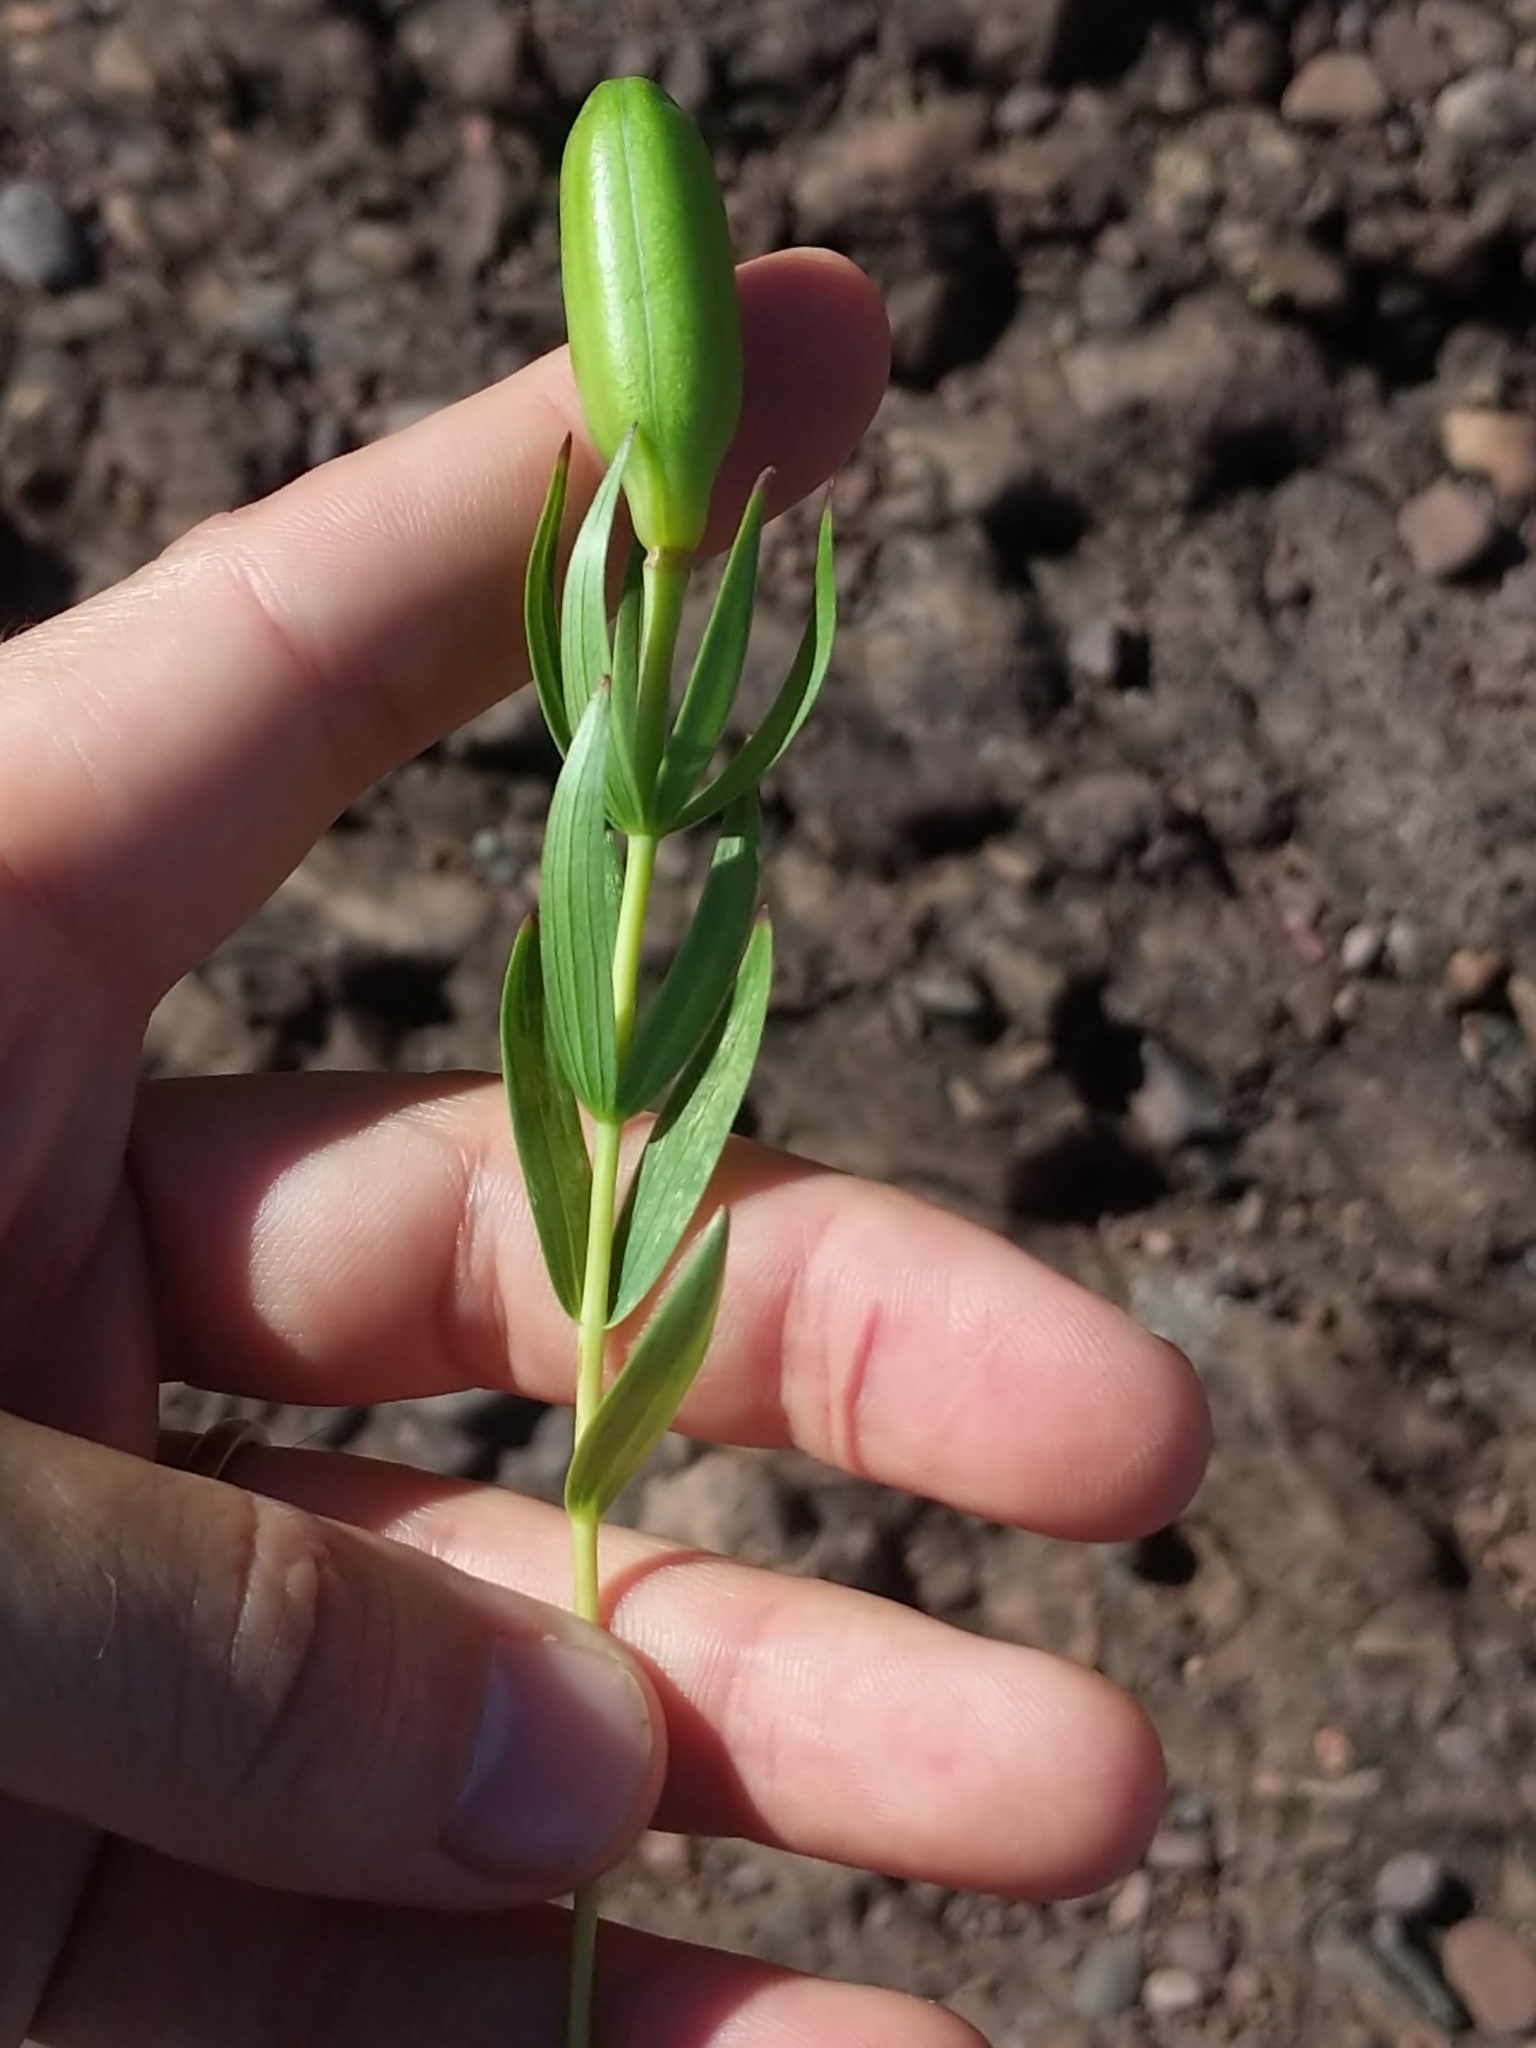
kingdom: Plantae
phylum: Tracheophyta
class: Liliopsida
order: Liliales
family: Liliaceae
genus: Lilium
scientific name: Lilium philadelphicum
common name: Red lily
